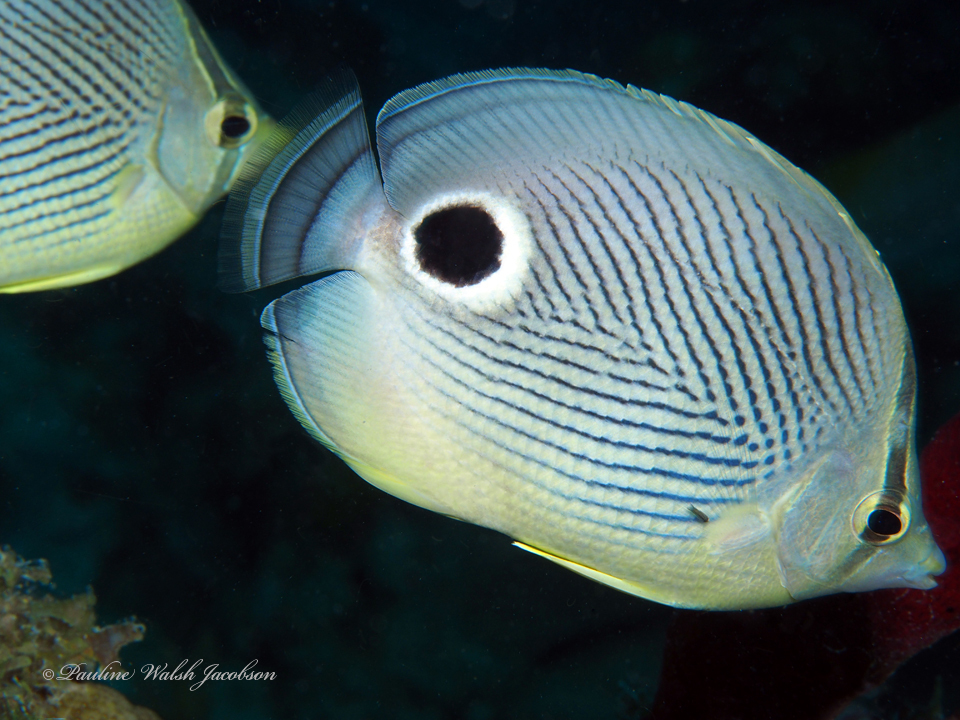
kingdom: Animalia
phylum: Chordata
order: Perciformes
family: Chaetodontidae
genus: Chaetodon
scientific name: Chaetodon capistratus
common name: Kete
